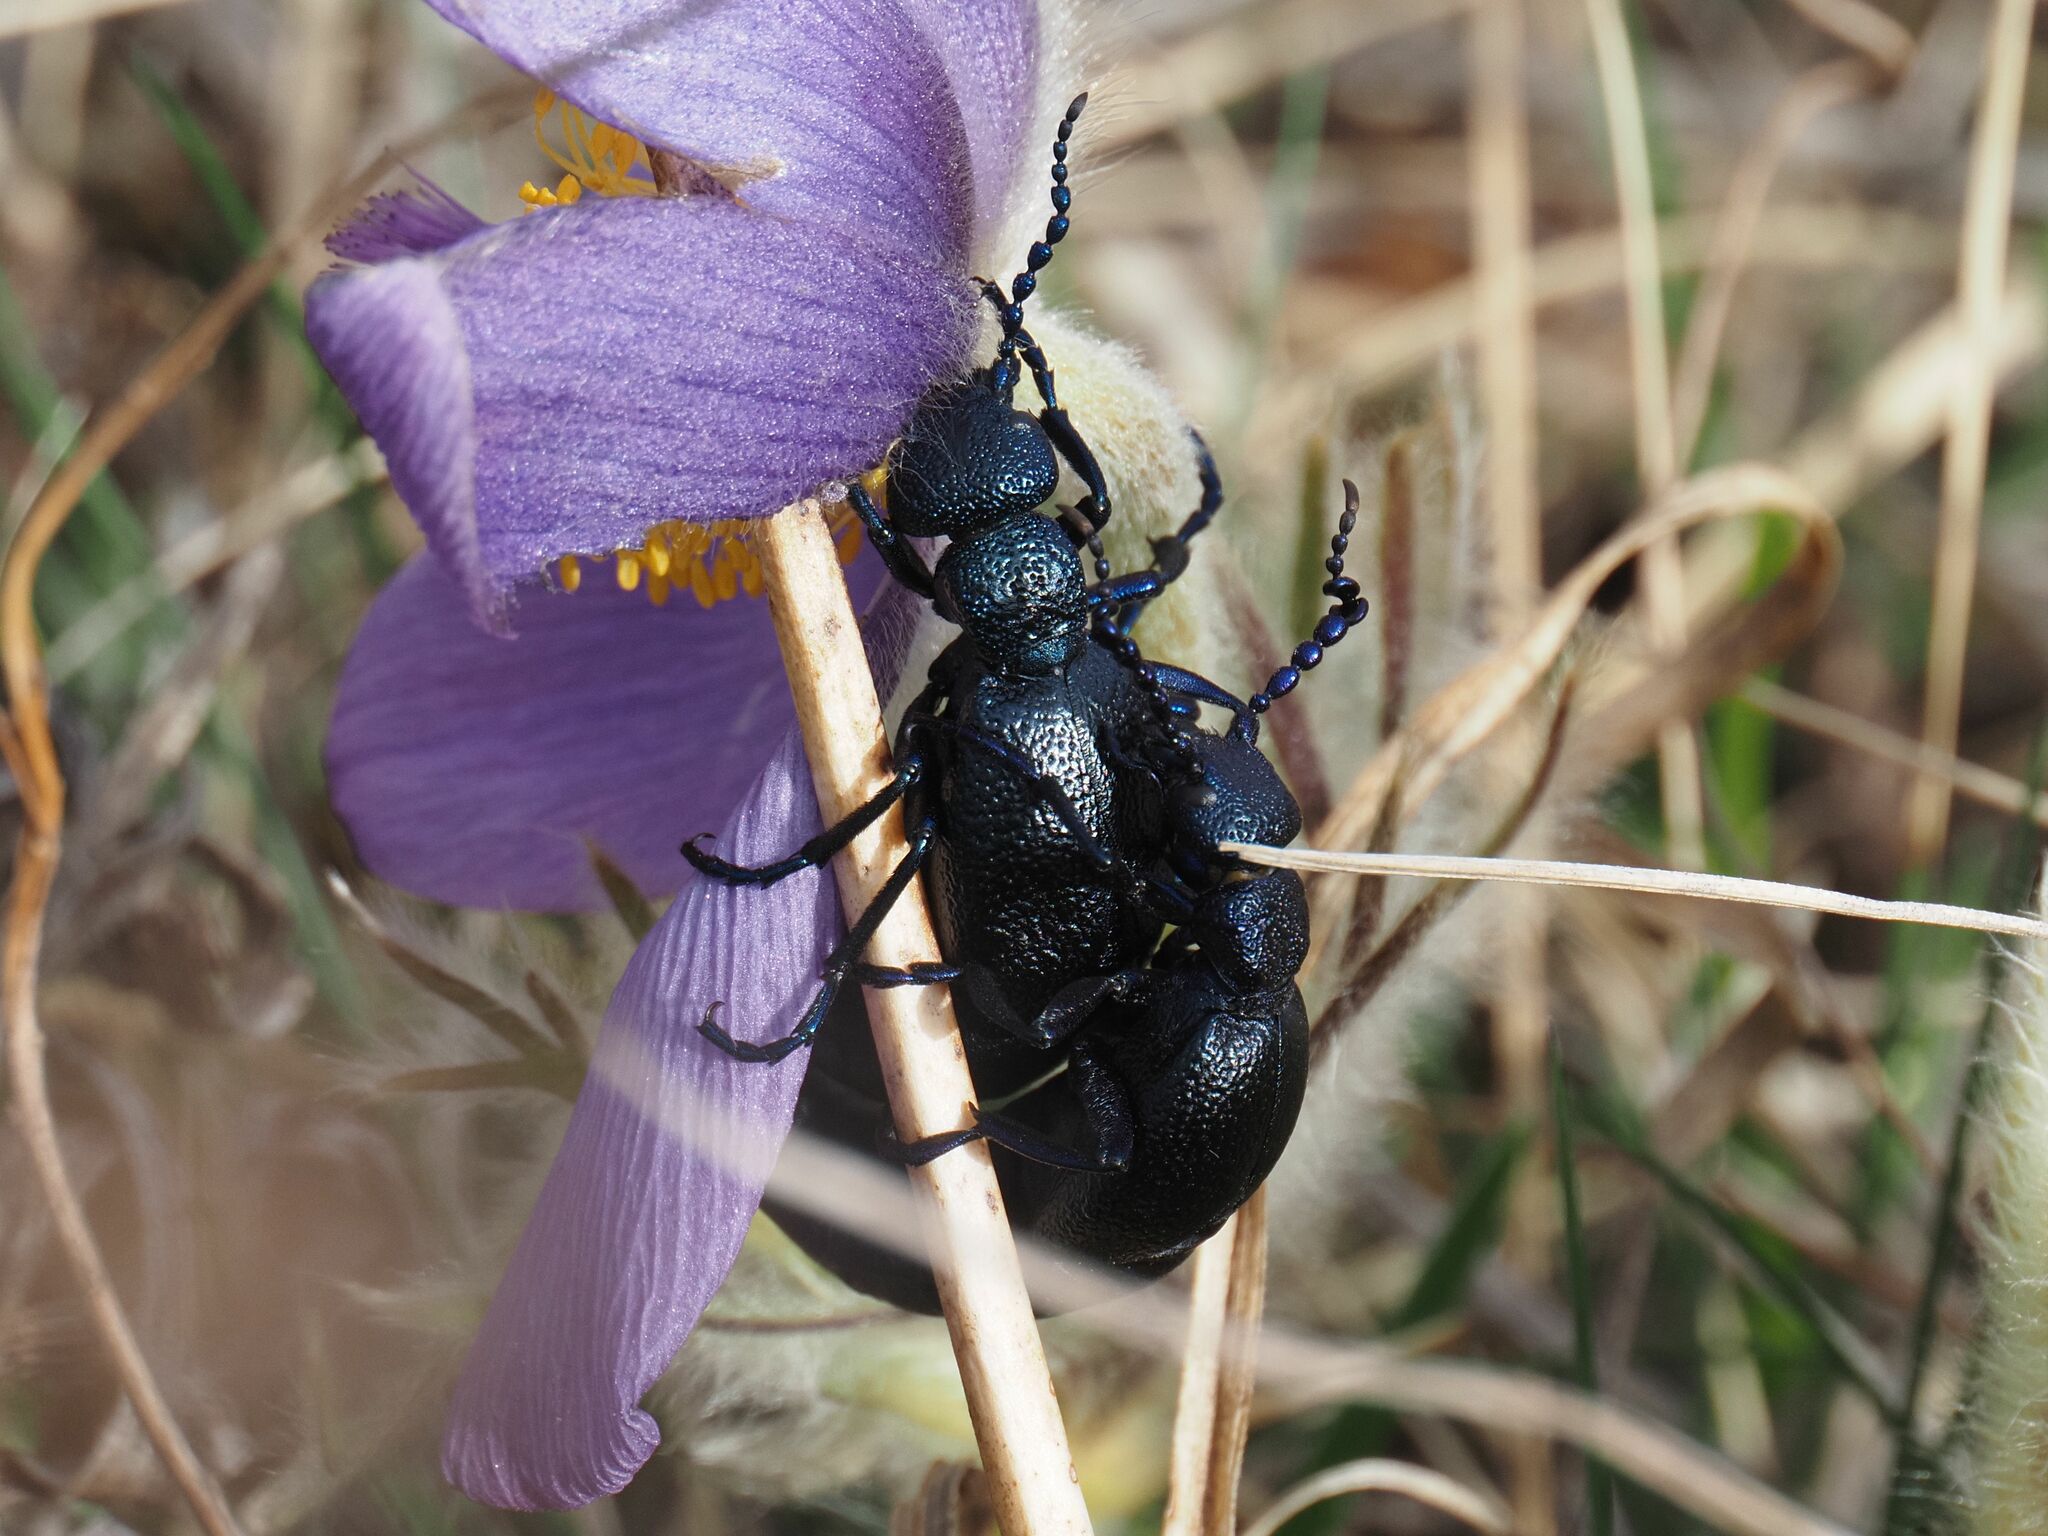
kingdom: Animalia
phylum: Arthropoda
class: Insecta
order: Coleoptera
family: Meloidae
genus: Meloe
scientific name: Meloe proscarabaeus
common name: Black oil-beetle
